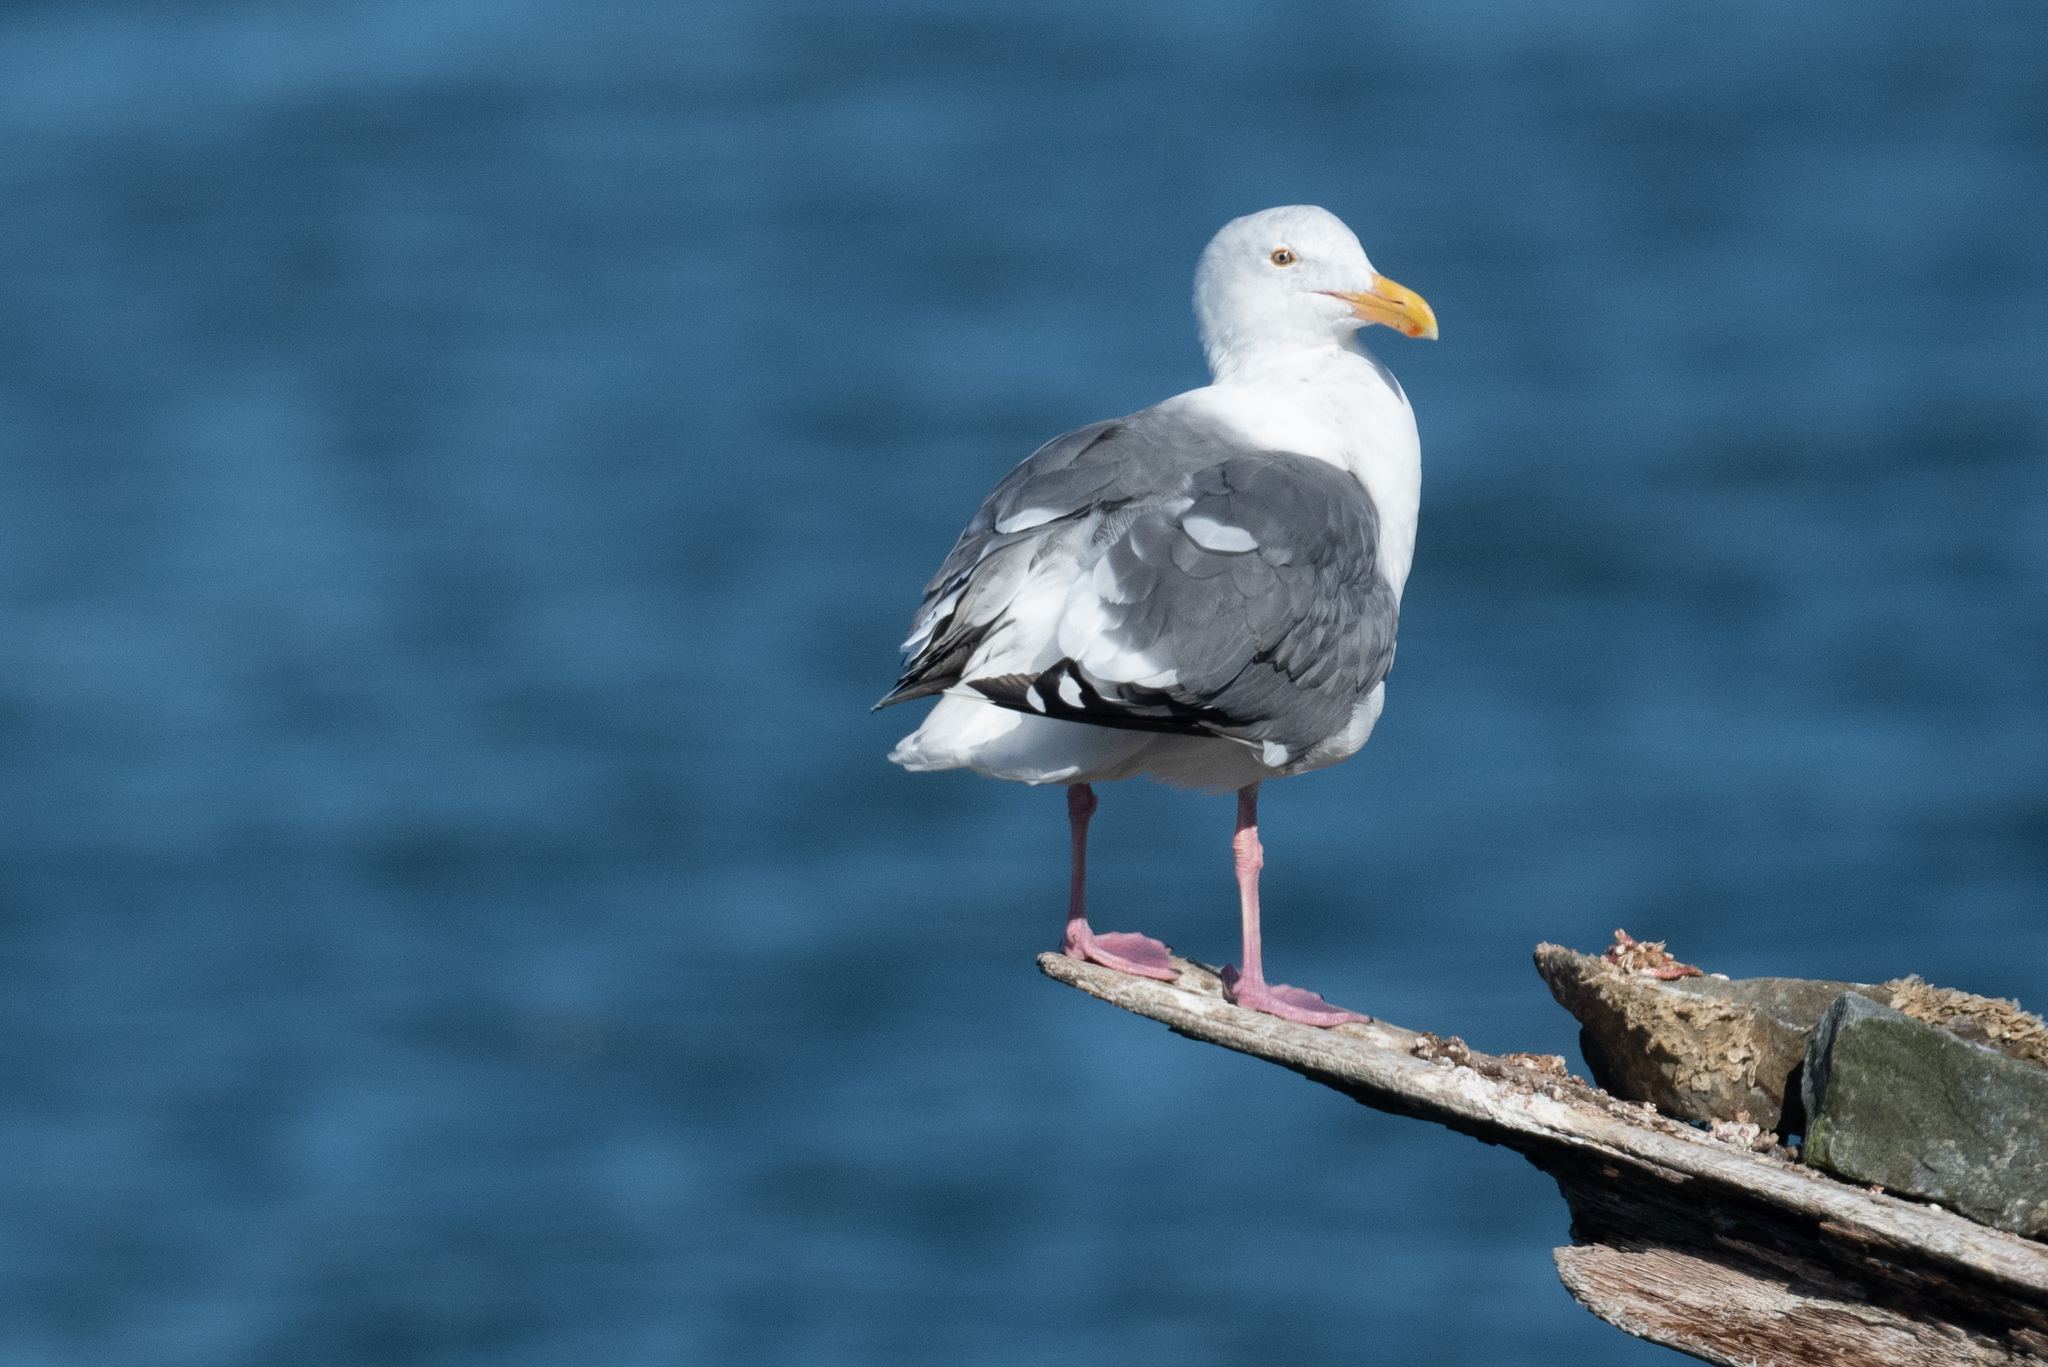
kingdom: Animalia
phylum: Chordata
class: Aves
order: Charadriiformes
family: Laridae
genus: Larus
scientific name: Larus occidentalis
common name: Western gull
